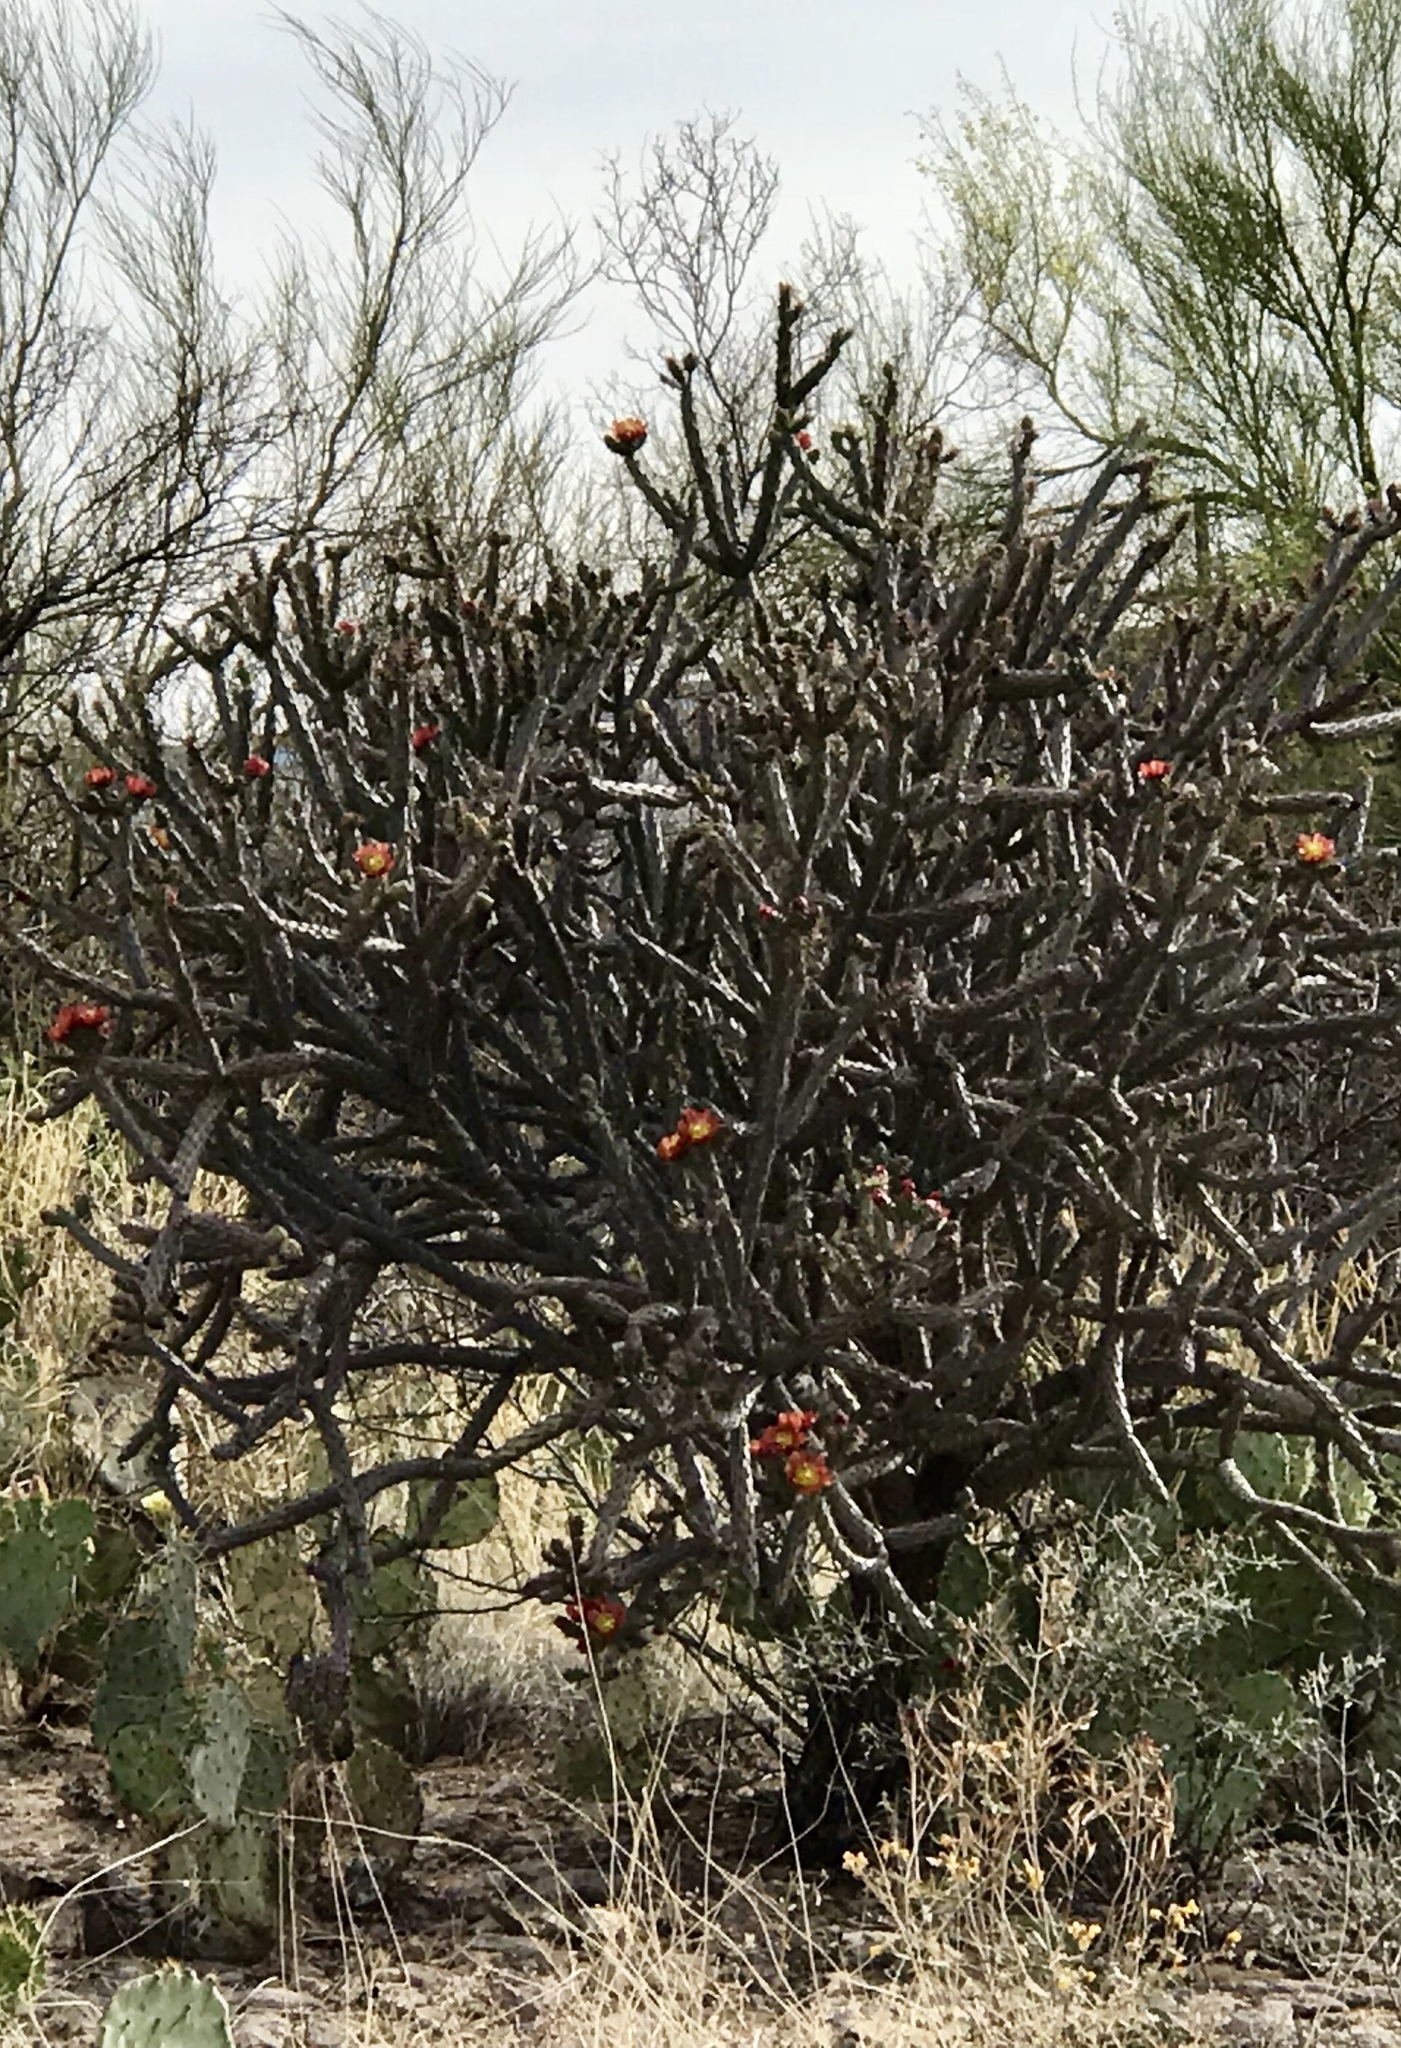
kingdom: Plantae
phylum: Tracheophyta
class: Magnoliopsida
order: Caryophyllales
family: Cactaceae
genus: Cylindropuntia
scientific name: Cylindropuntia thurberi
